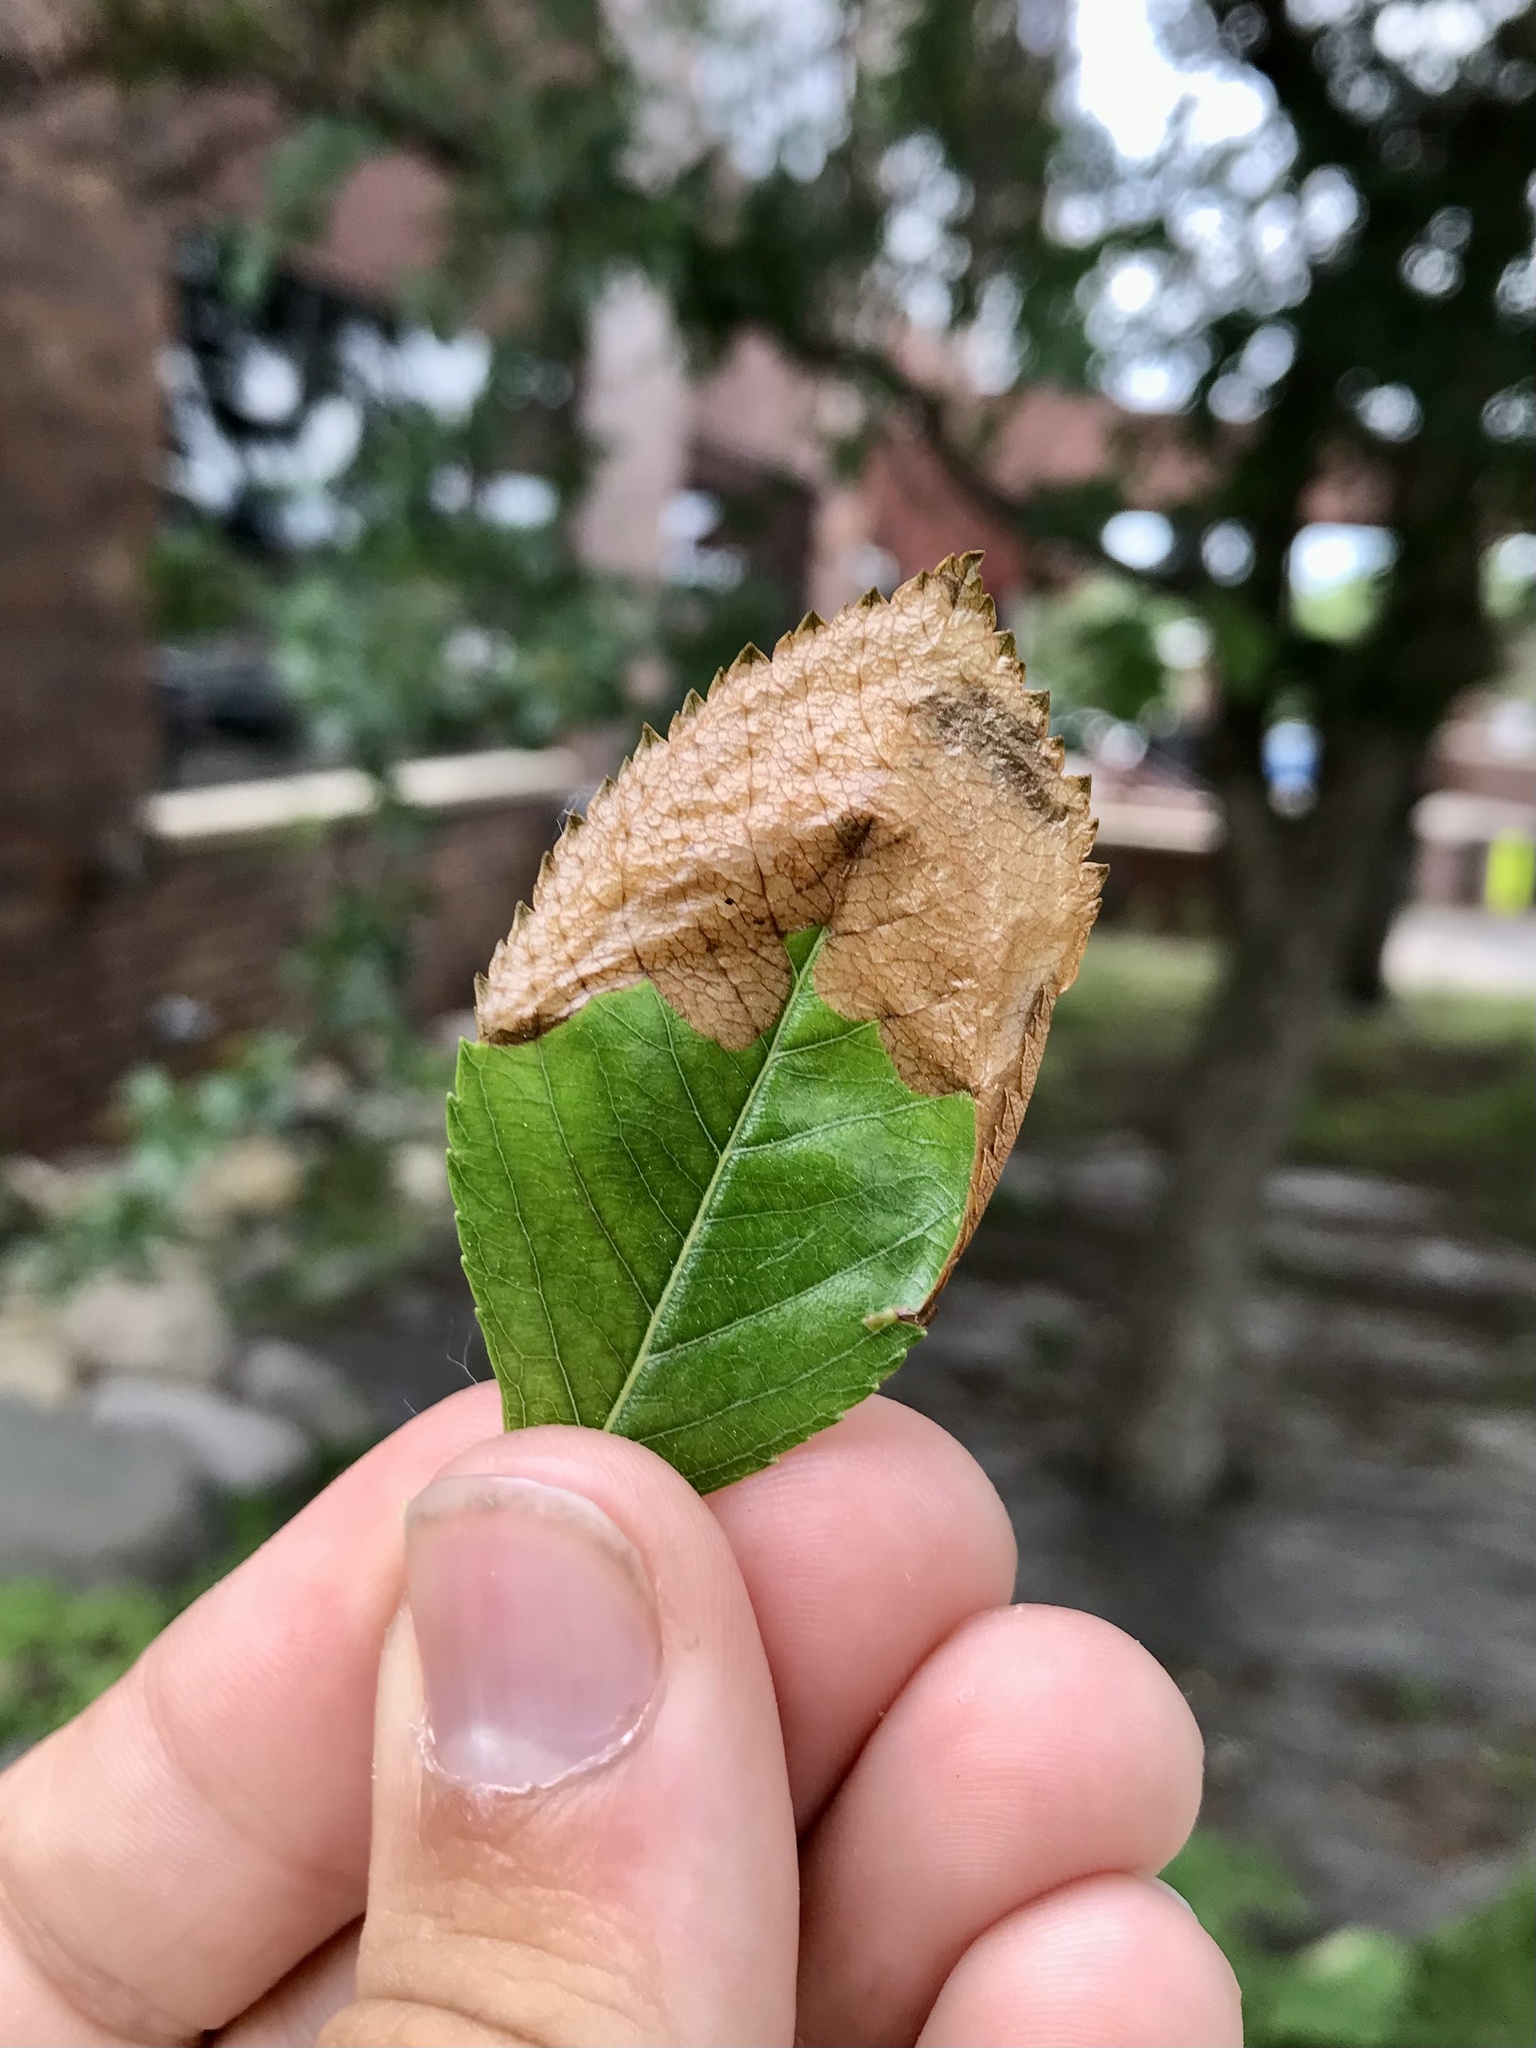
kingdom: Animalia
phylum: Arthropoda
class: Insecta
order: Hymenoptera
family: Tenthredinidae
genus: Profenusa
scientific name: Profenusa
